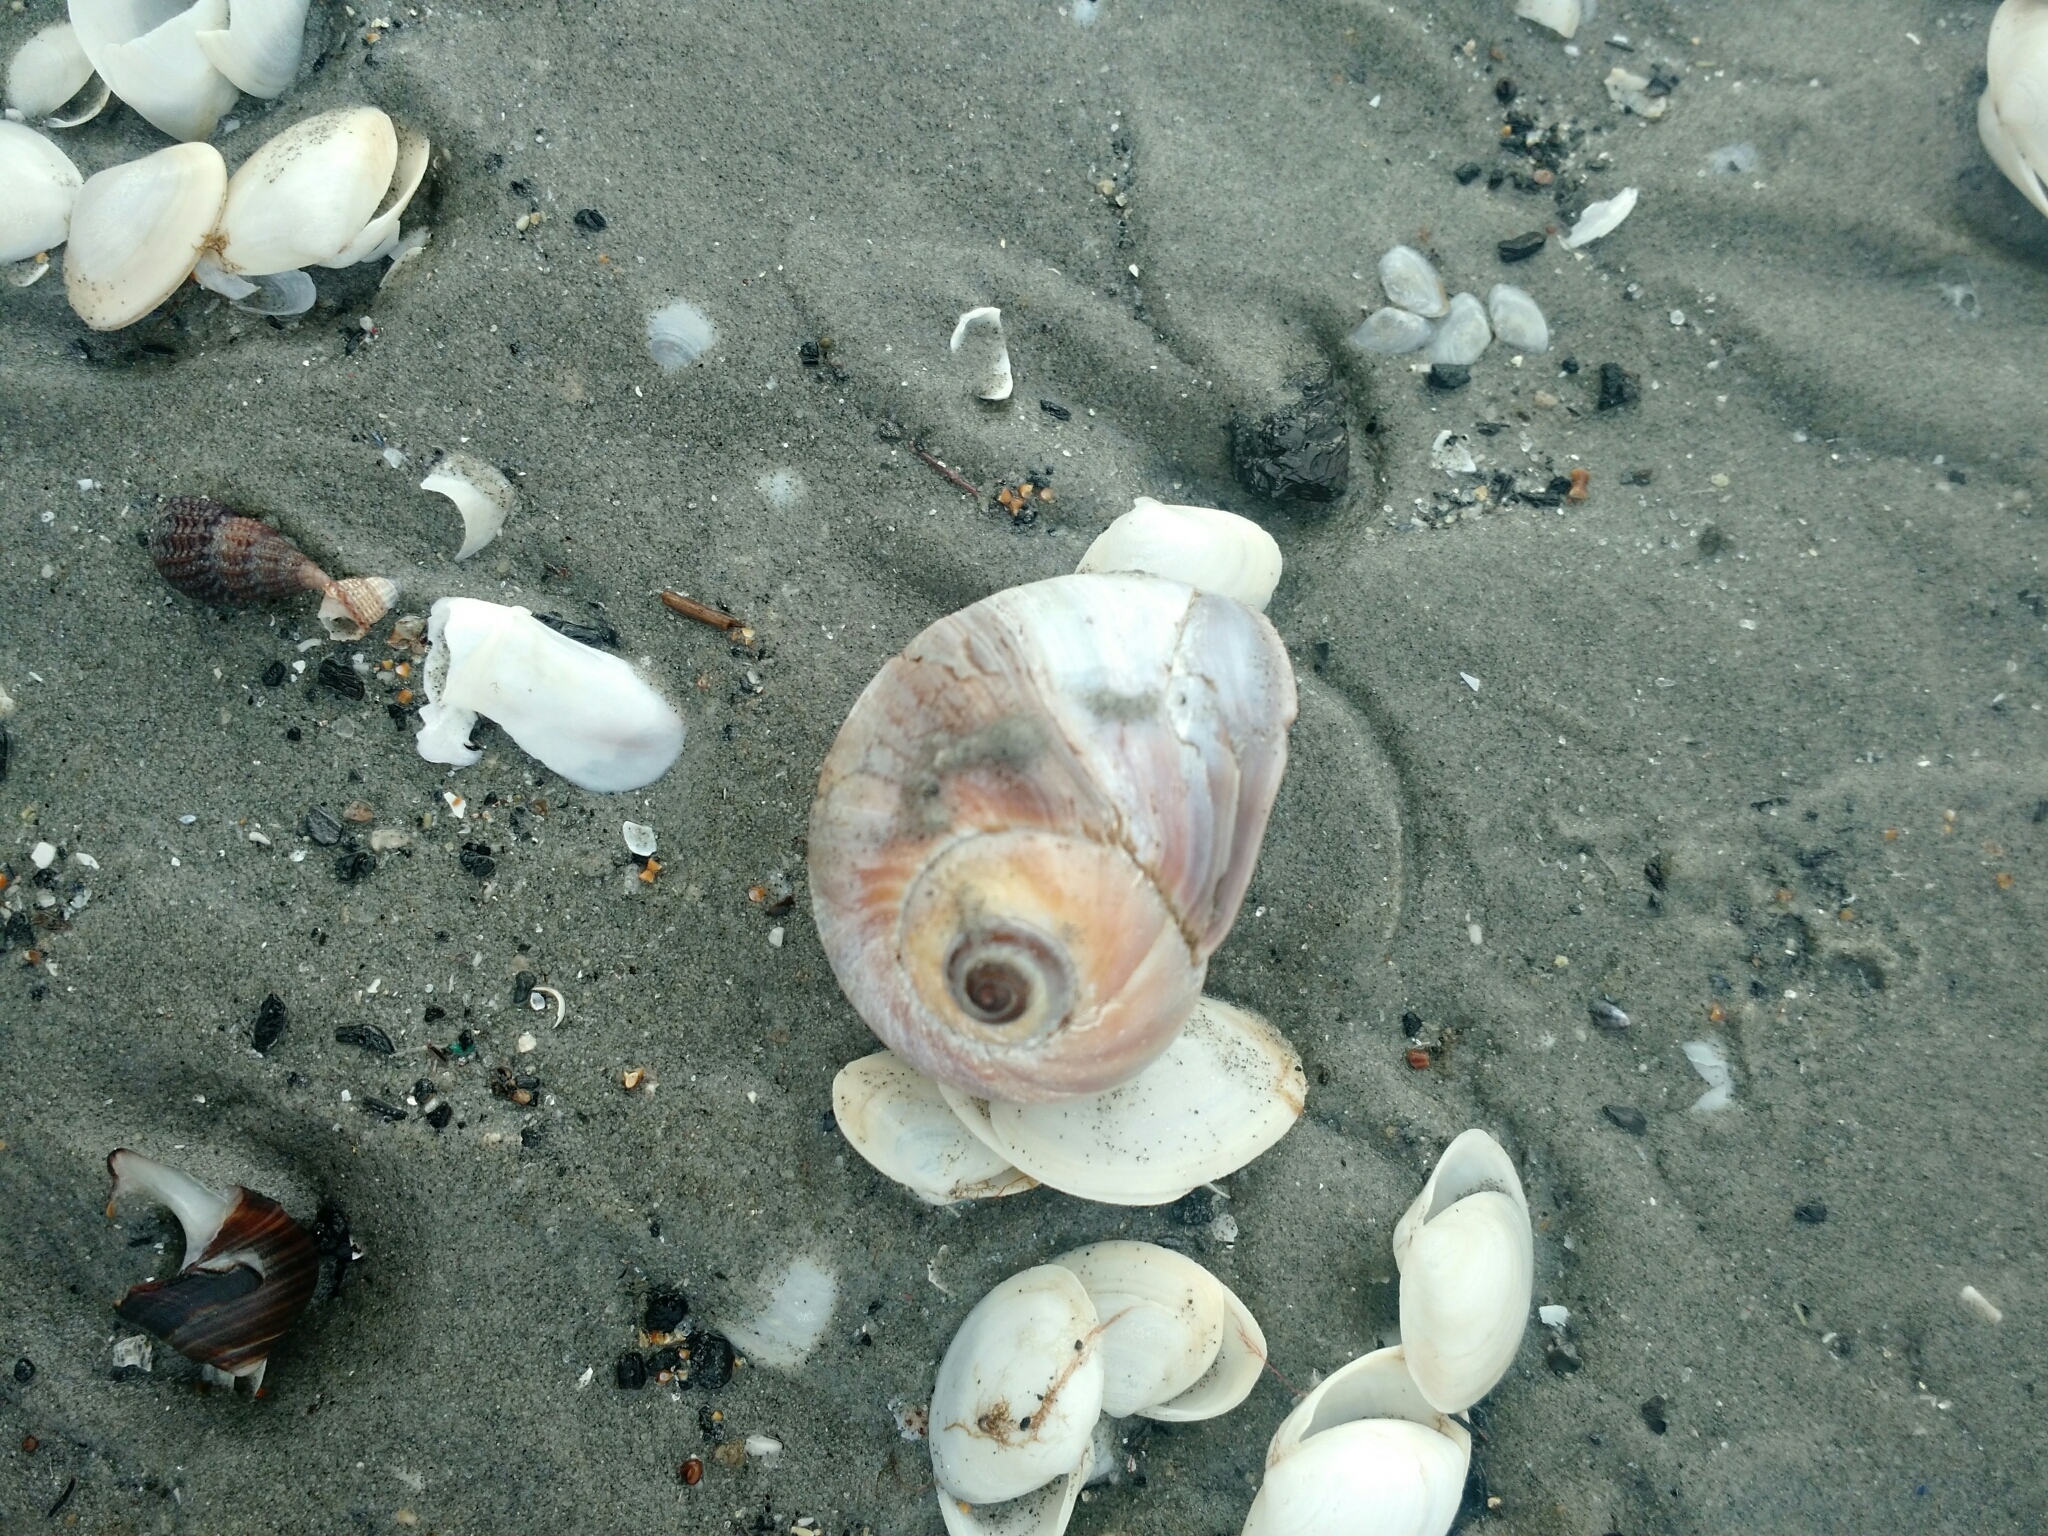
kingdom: Animalia
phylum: Mollusca
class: Gastropoda
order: Littorinimorpha
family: Naticidae
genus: Euspira
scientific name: Euspira heros
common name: Common northern moonsnail
